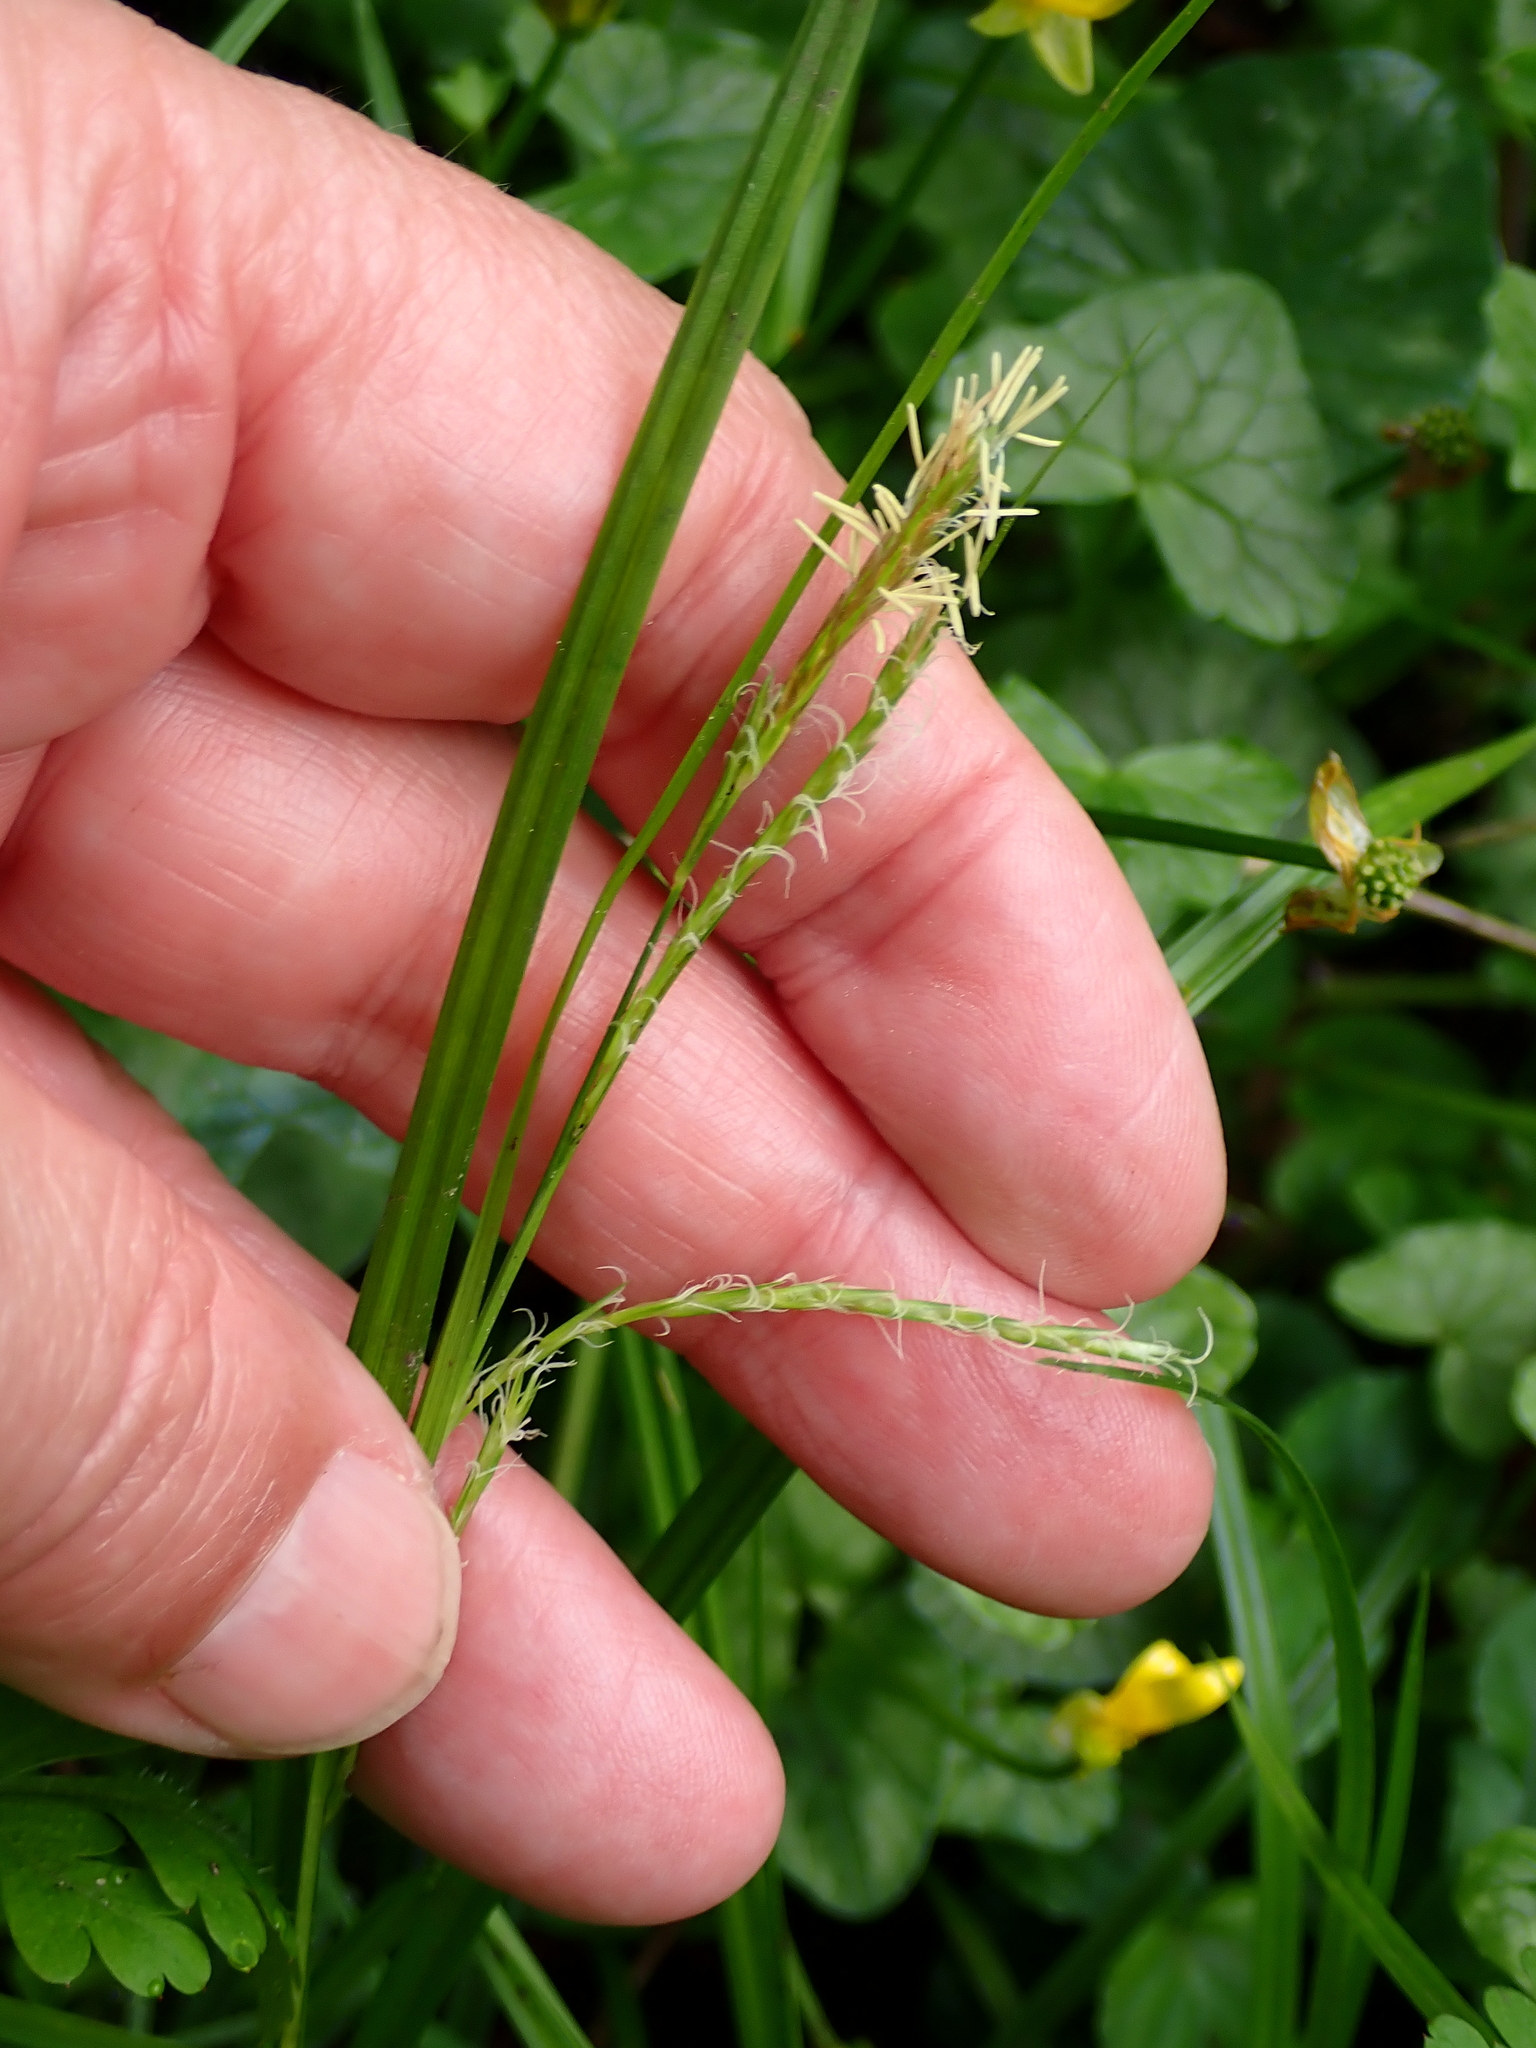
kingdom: Plantae
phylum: Tracheophyta
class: Liliopsida
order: Poales
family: Cyperaceae
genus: Carex
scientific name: Carex sylvatica
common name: Wood-sedge
